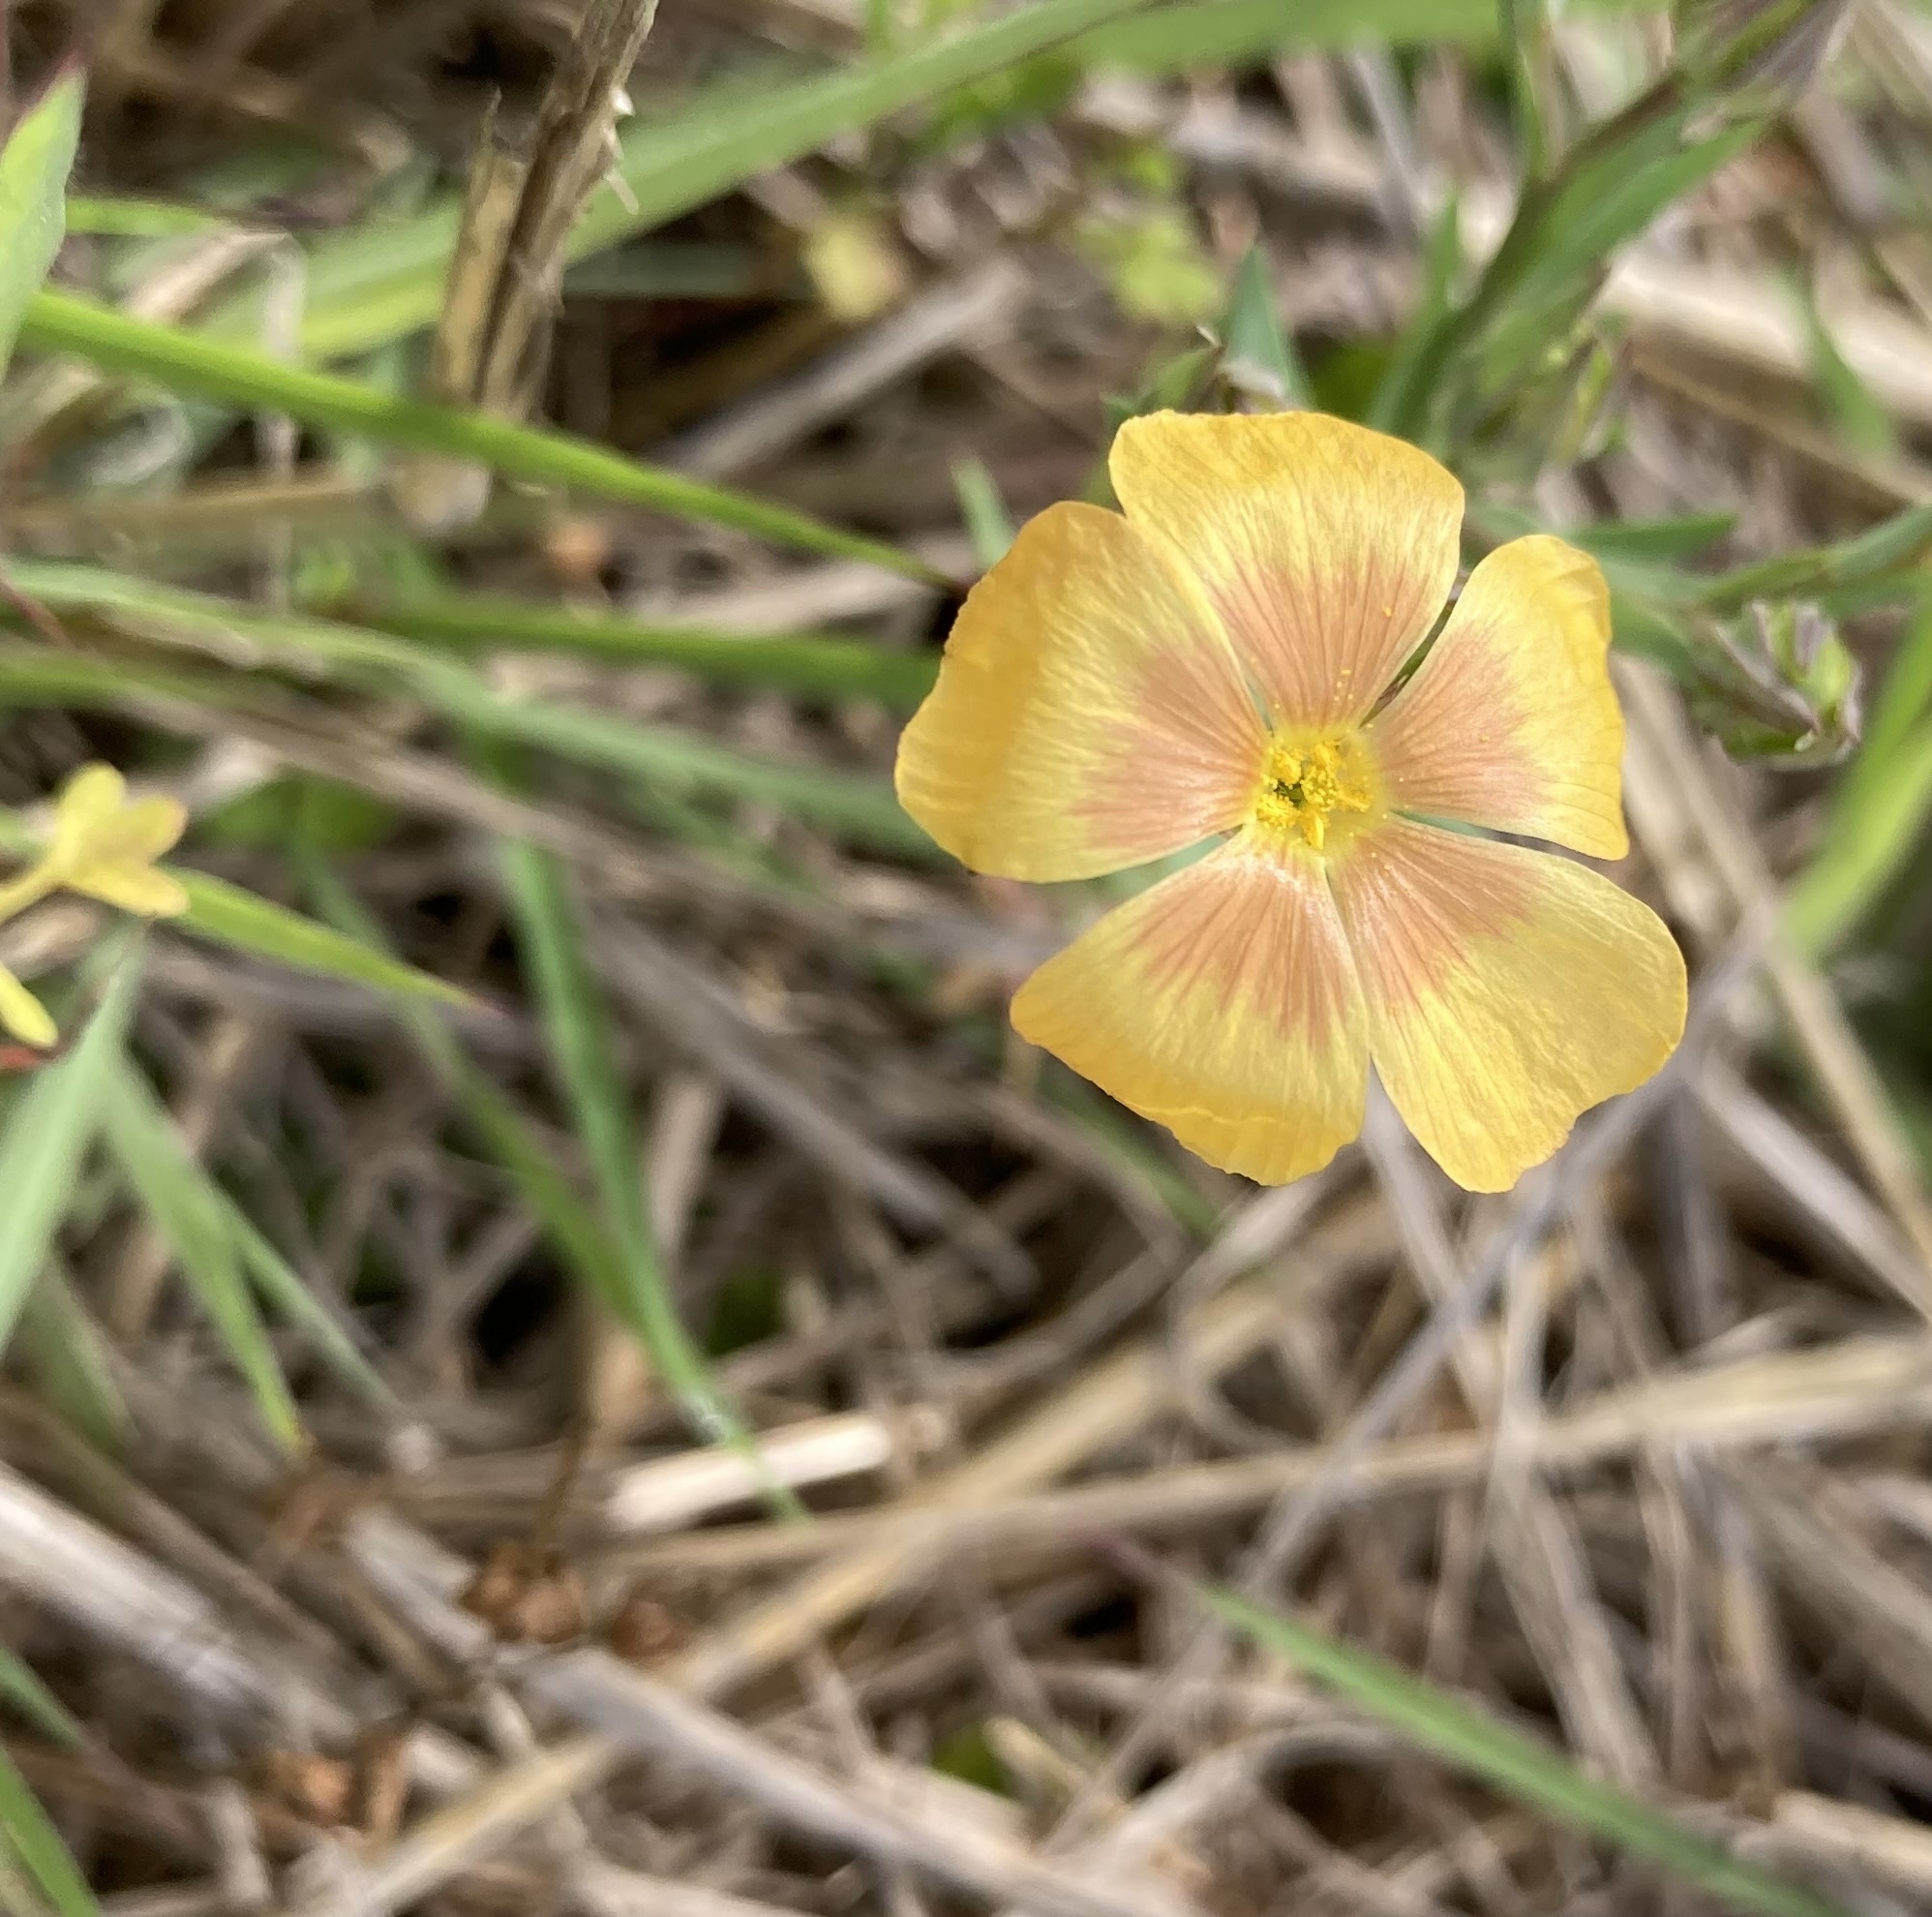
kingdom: Plantae
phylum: Tracheophyta
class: Magnoliopsida
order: Malpighiales
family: Linaceae
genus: Linum
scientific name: Linum berlandieri
